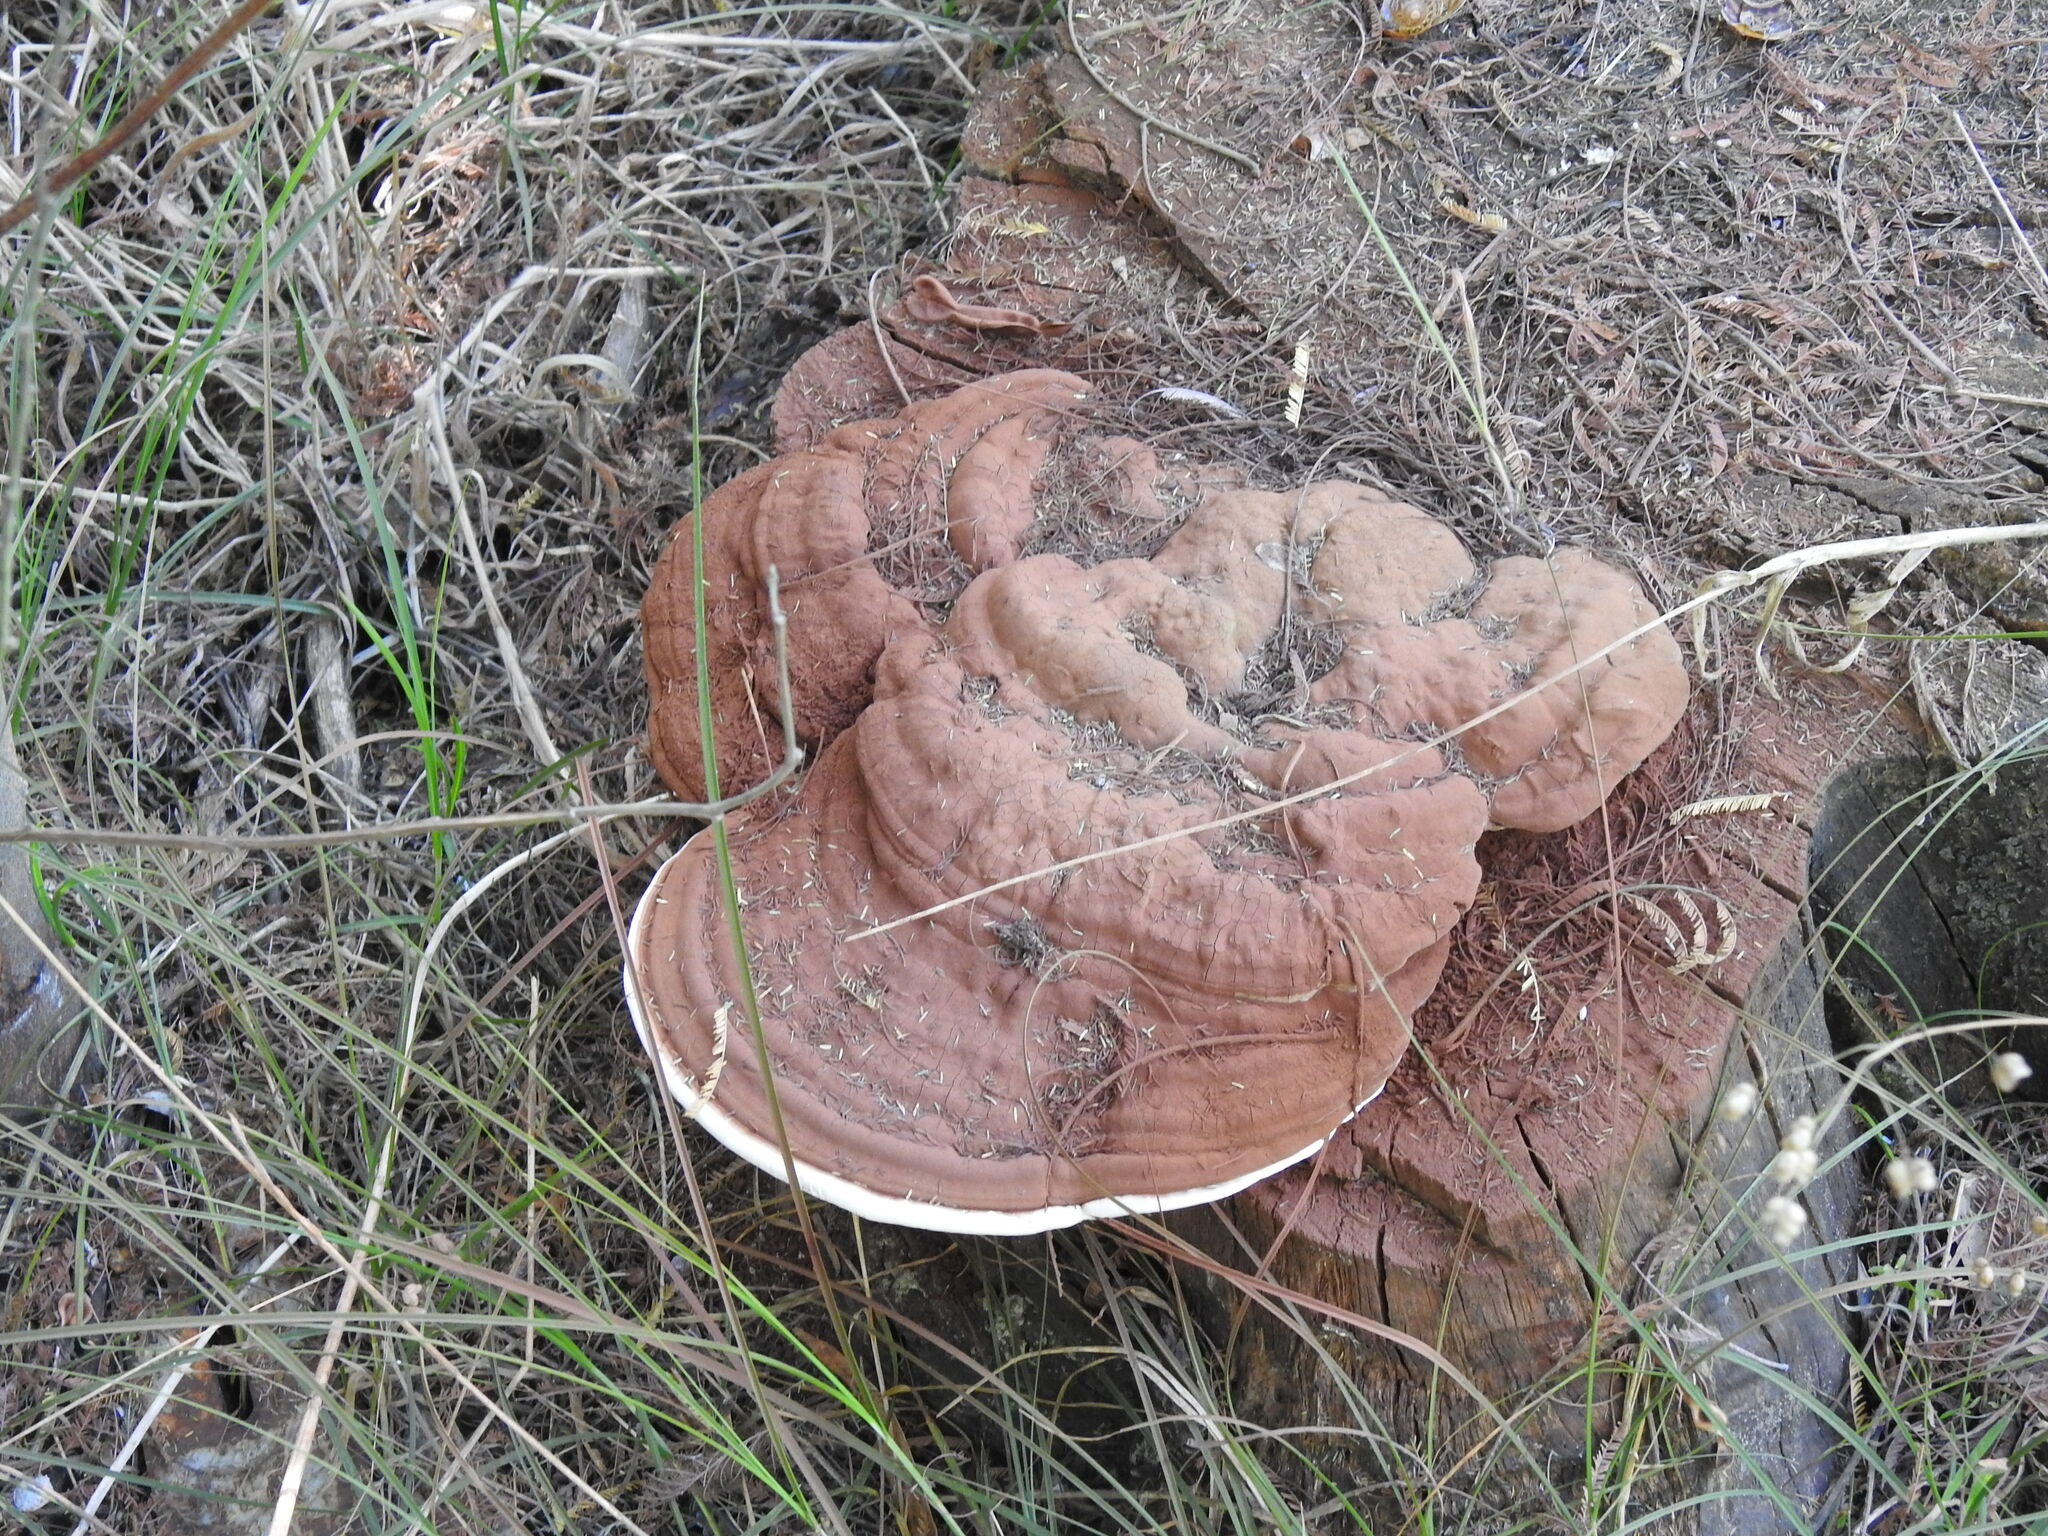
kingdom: Fungi
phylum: Basidiomycota
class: Agaricomycetes
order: Polyporales
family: Polyporaceae
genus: Ganoderma
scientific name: Ganoderma applanatum
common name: Artist's bracket
